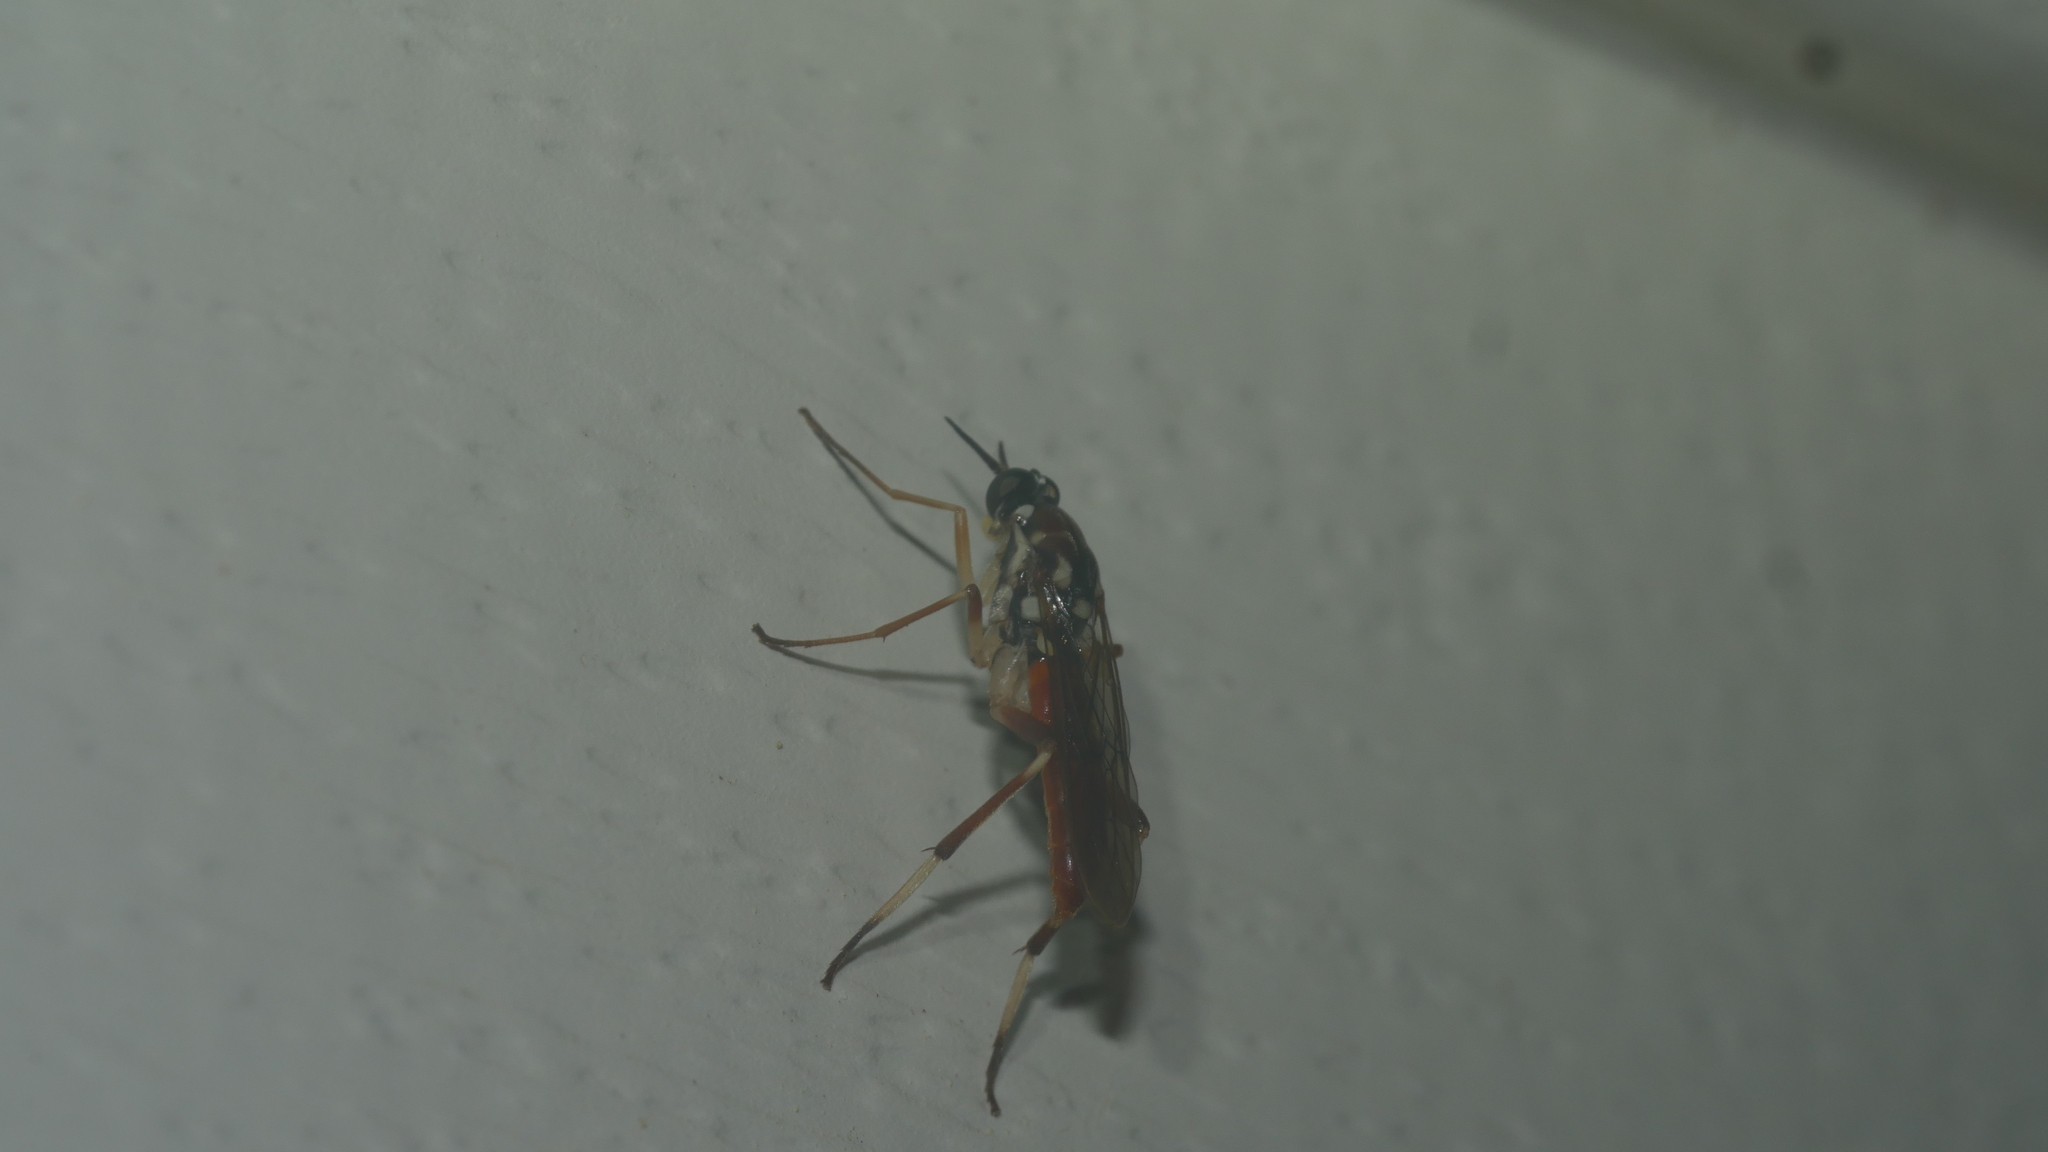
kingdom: Animalia
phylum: Arthropoda
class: Insecta
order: Diptera
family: Xylomyidae
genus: Xylomya
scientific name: Xylomya americana
